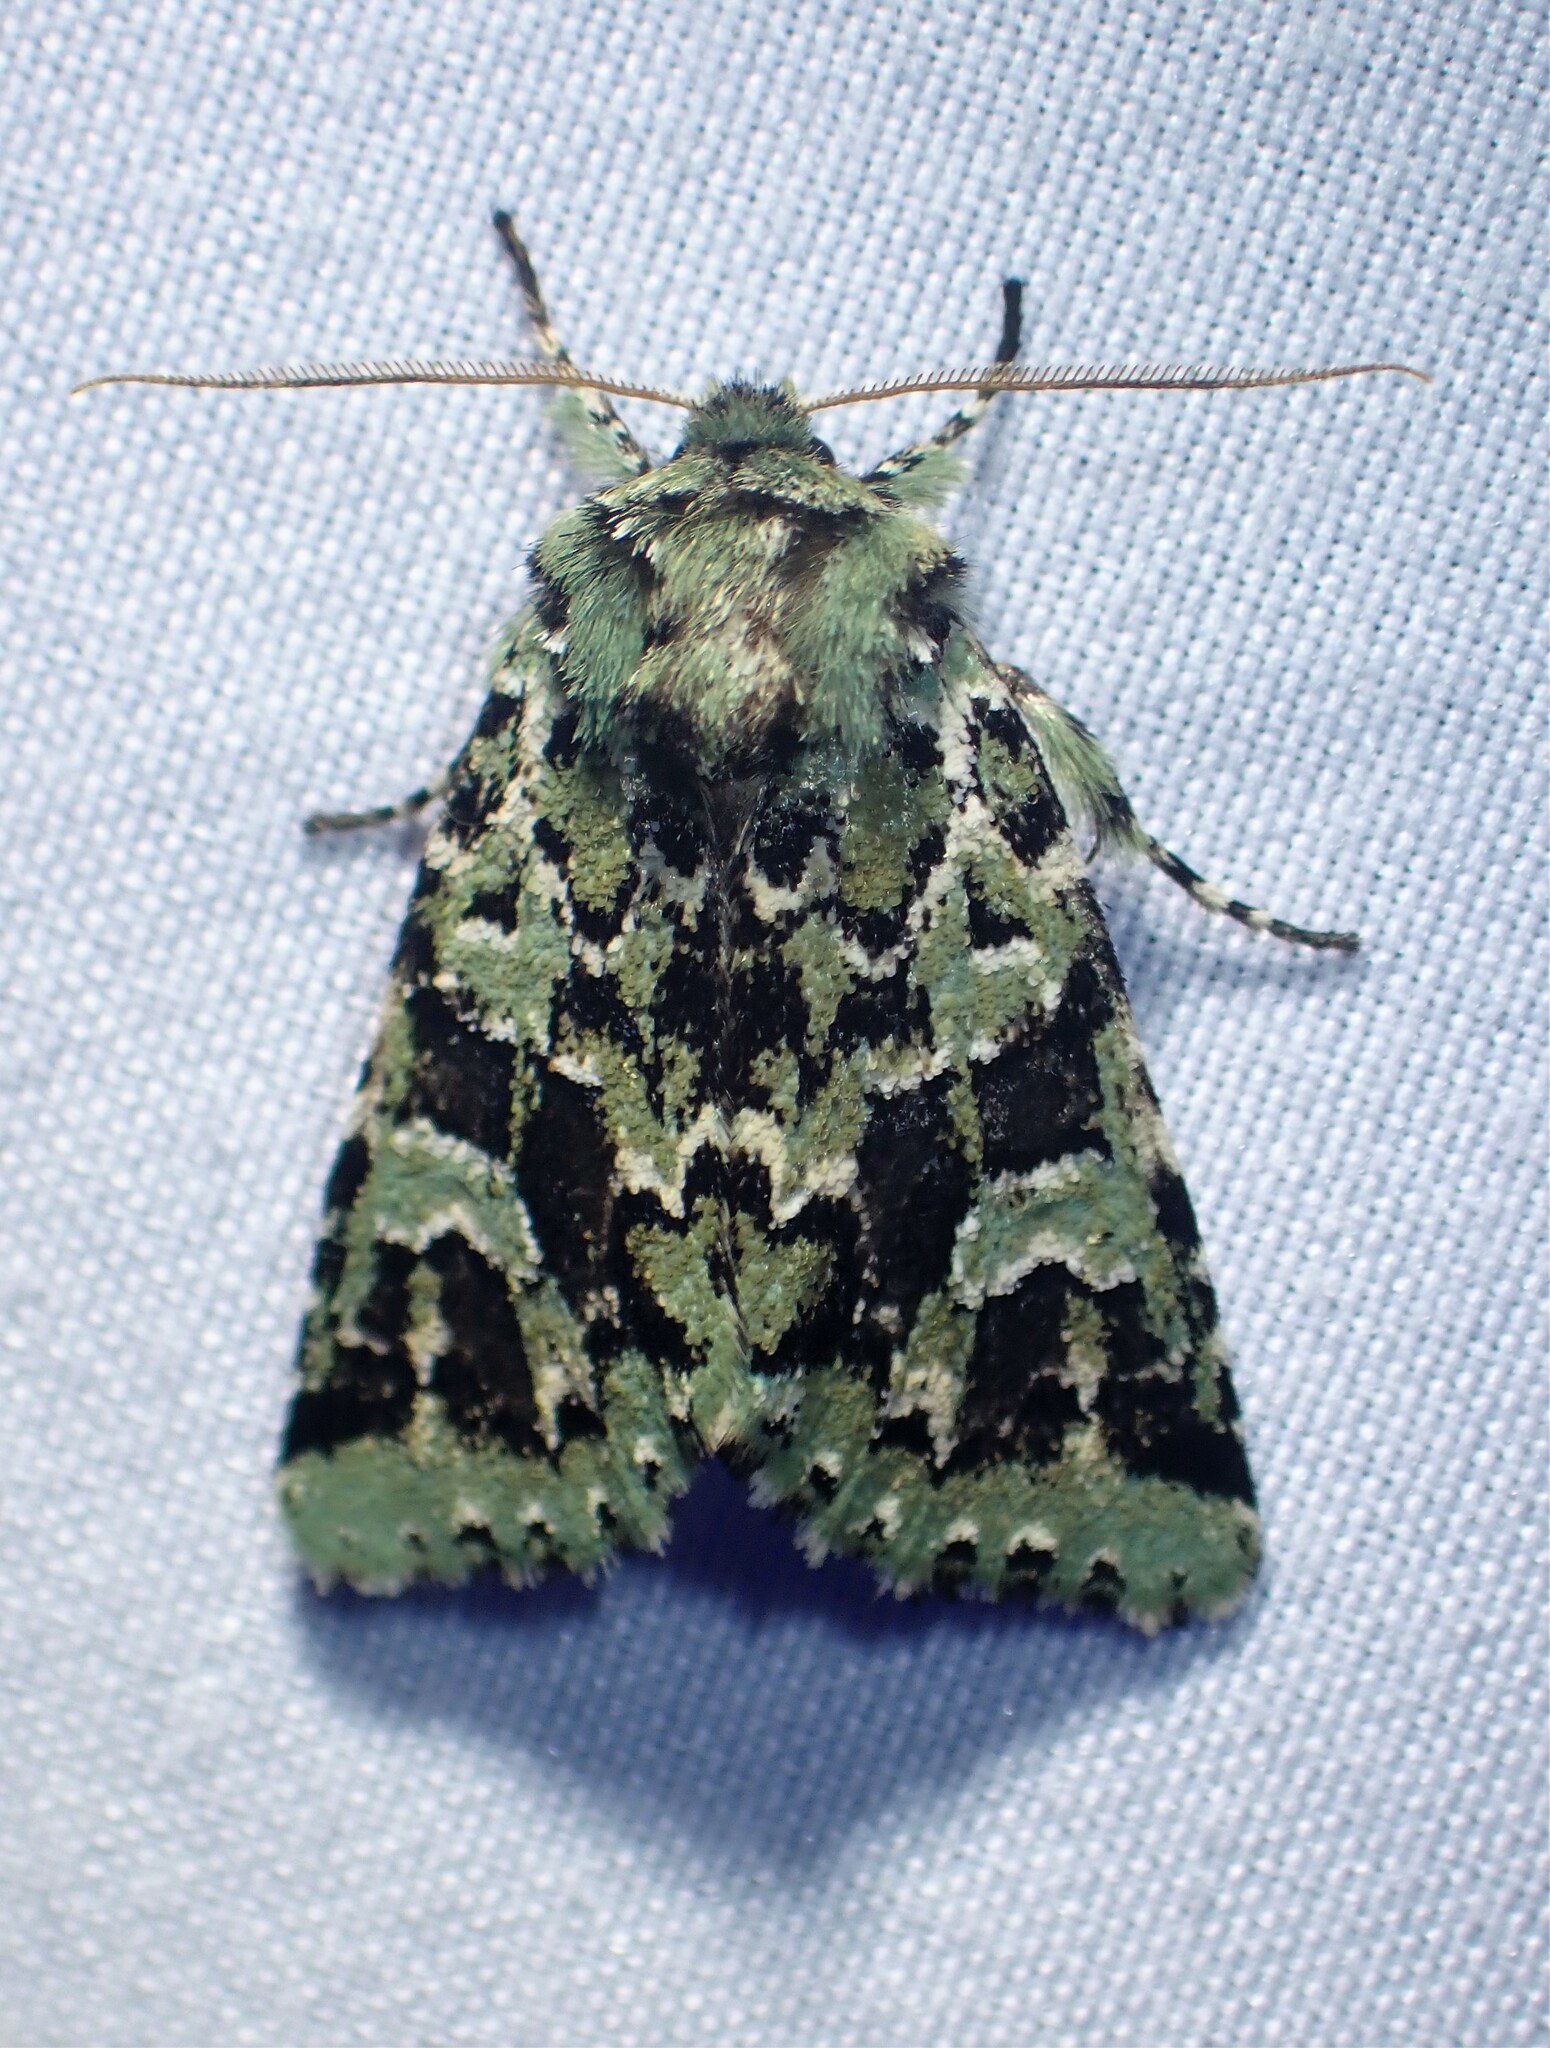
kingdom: Animalia
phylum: Arthropoda
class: Insecta
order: Lepidoptera
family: Noctuidae
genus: Feralia
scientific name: Feralia comstocki
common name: Comstock's sallow
